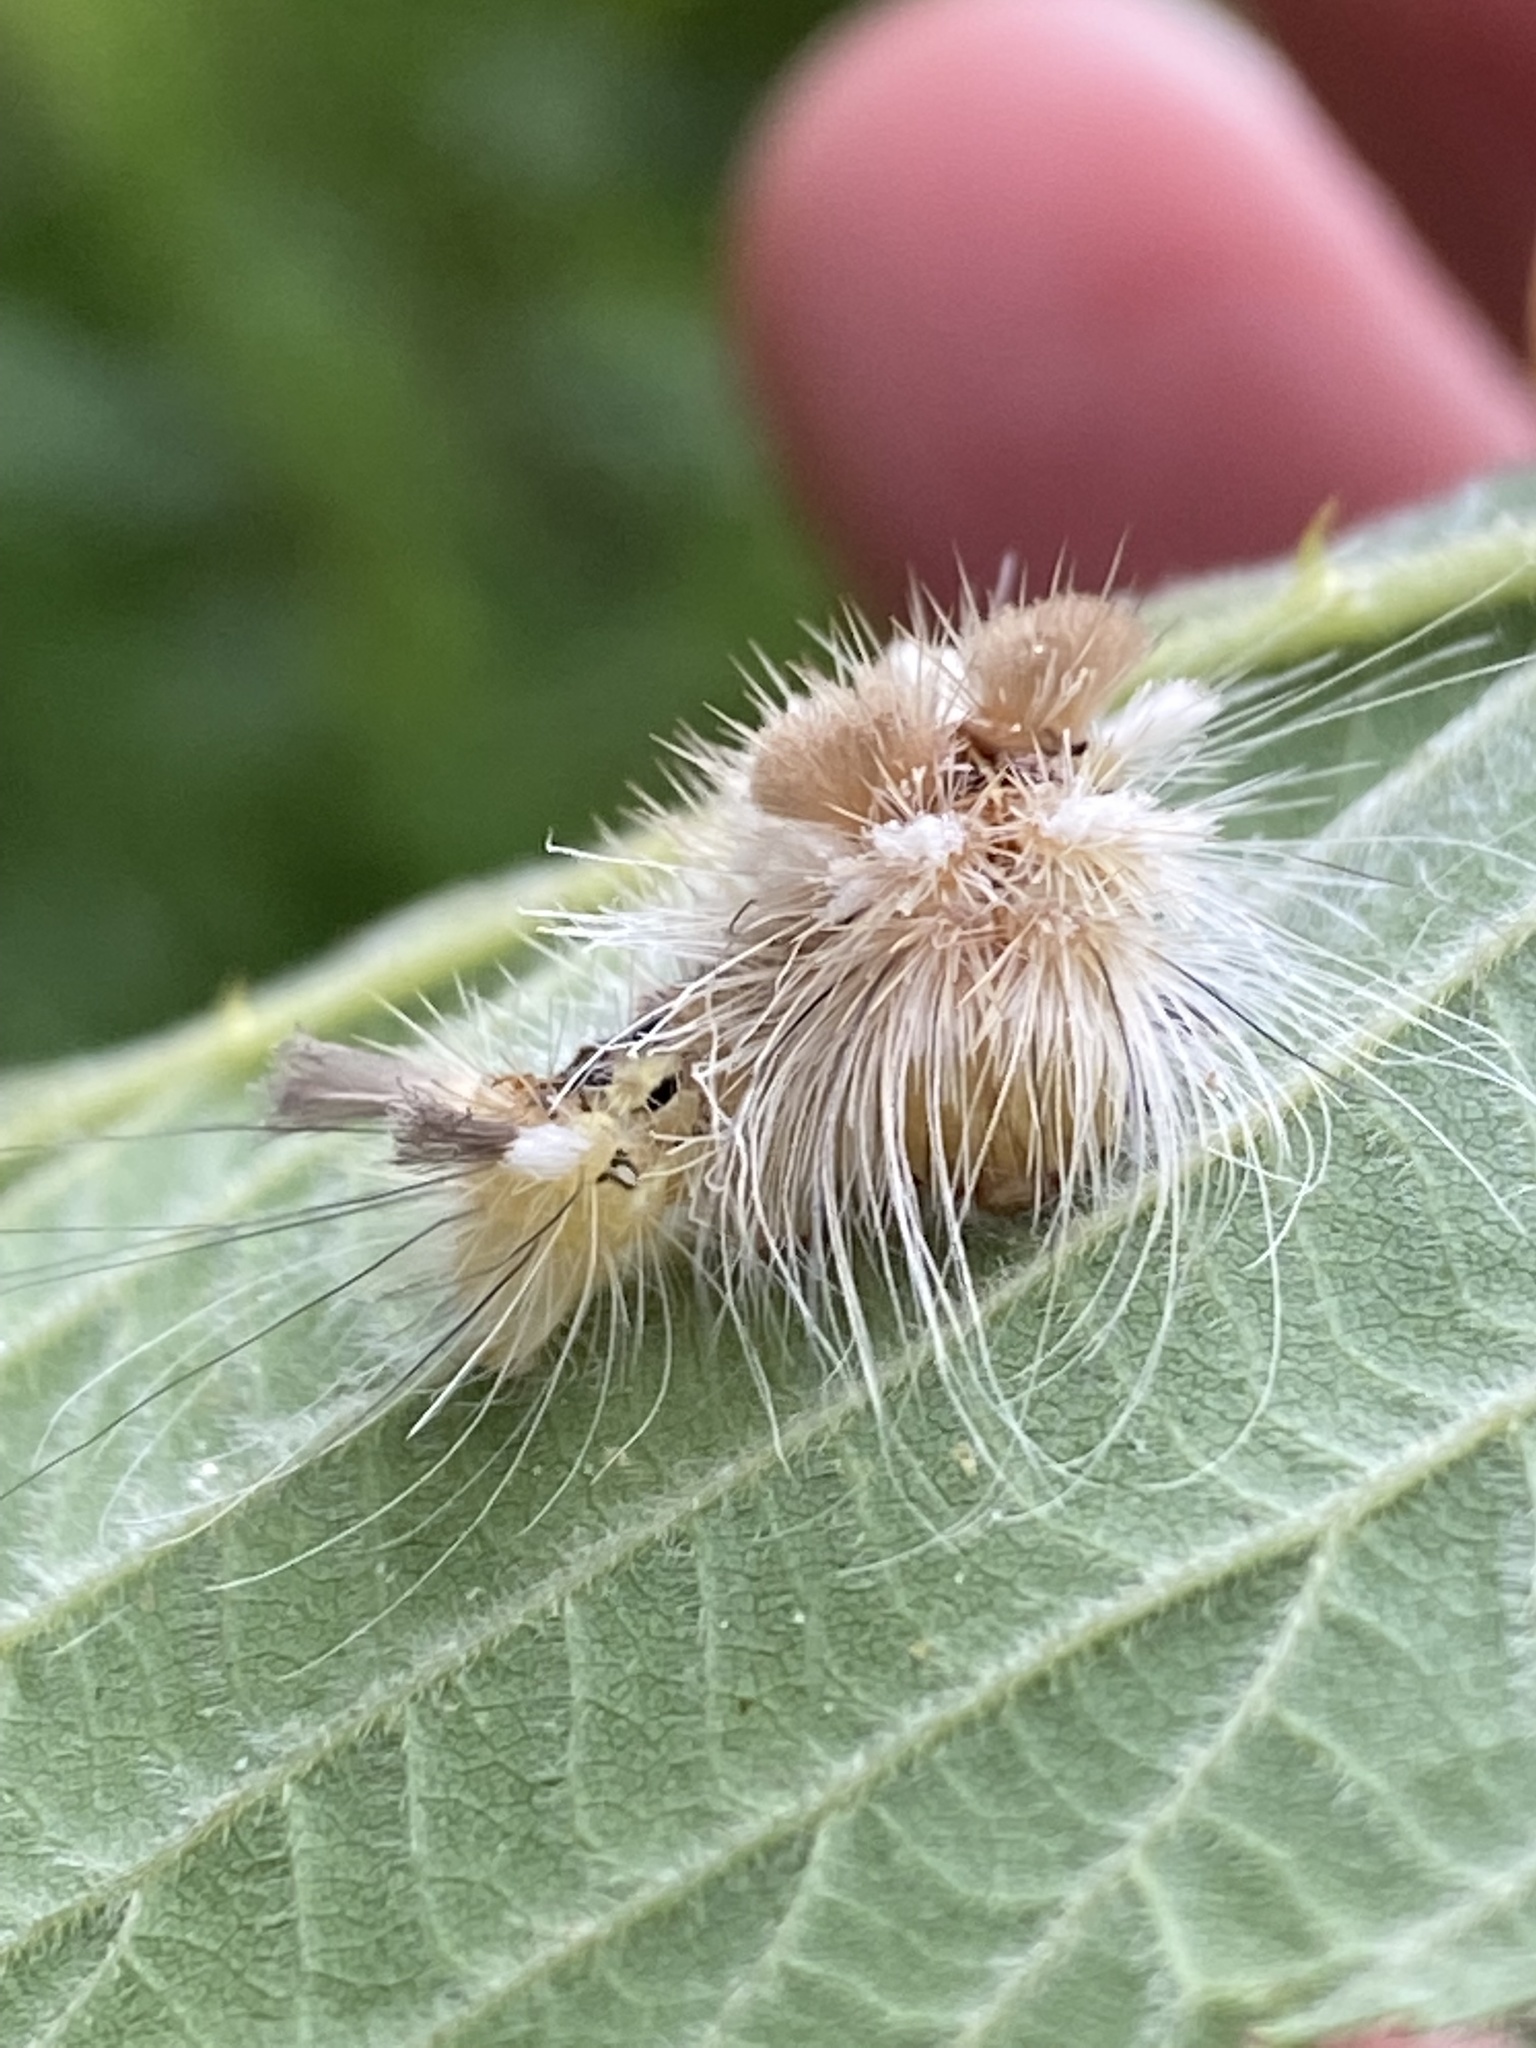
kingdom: Animalia
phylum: Arthropoda
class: Insecta
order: Lepidoptera
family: Noctuidae
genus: Acronicta
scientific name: Acronicta impleta
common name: Powdered dagger
